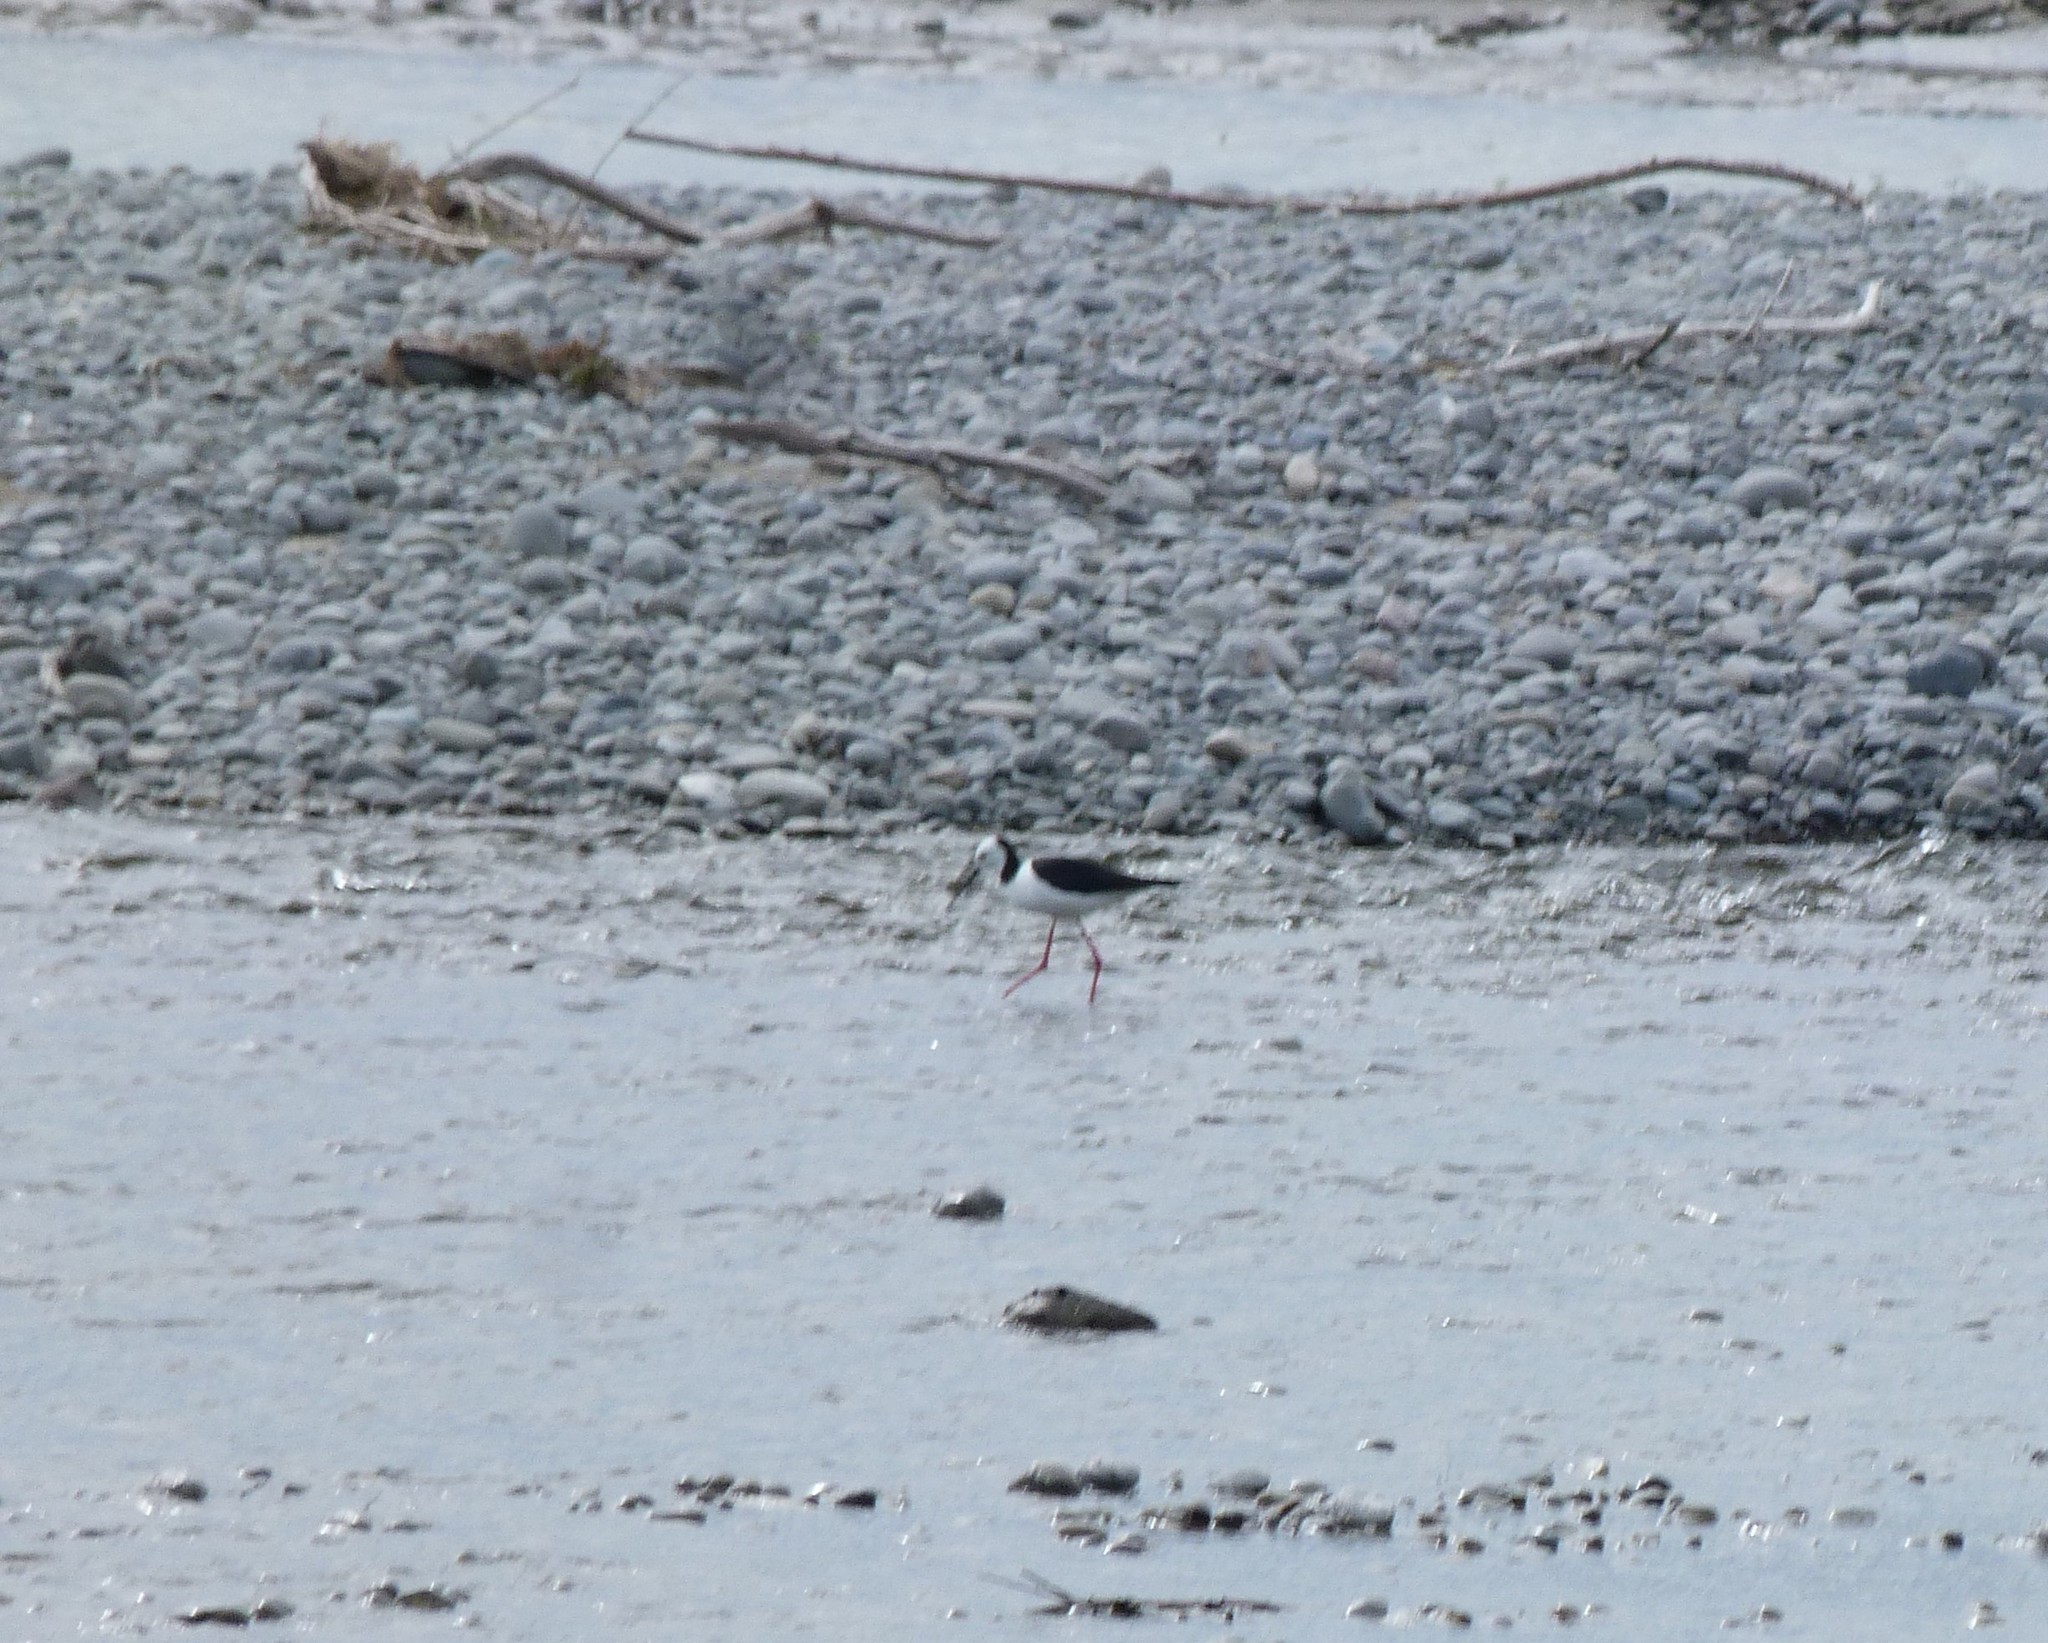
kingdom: Animalia
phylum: Chordata
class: Aves
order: Charadriiformes
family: Recurvirostridae
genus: Himantopus
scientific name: Himantopus leucocephalus
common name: White-headed stilt
